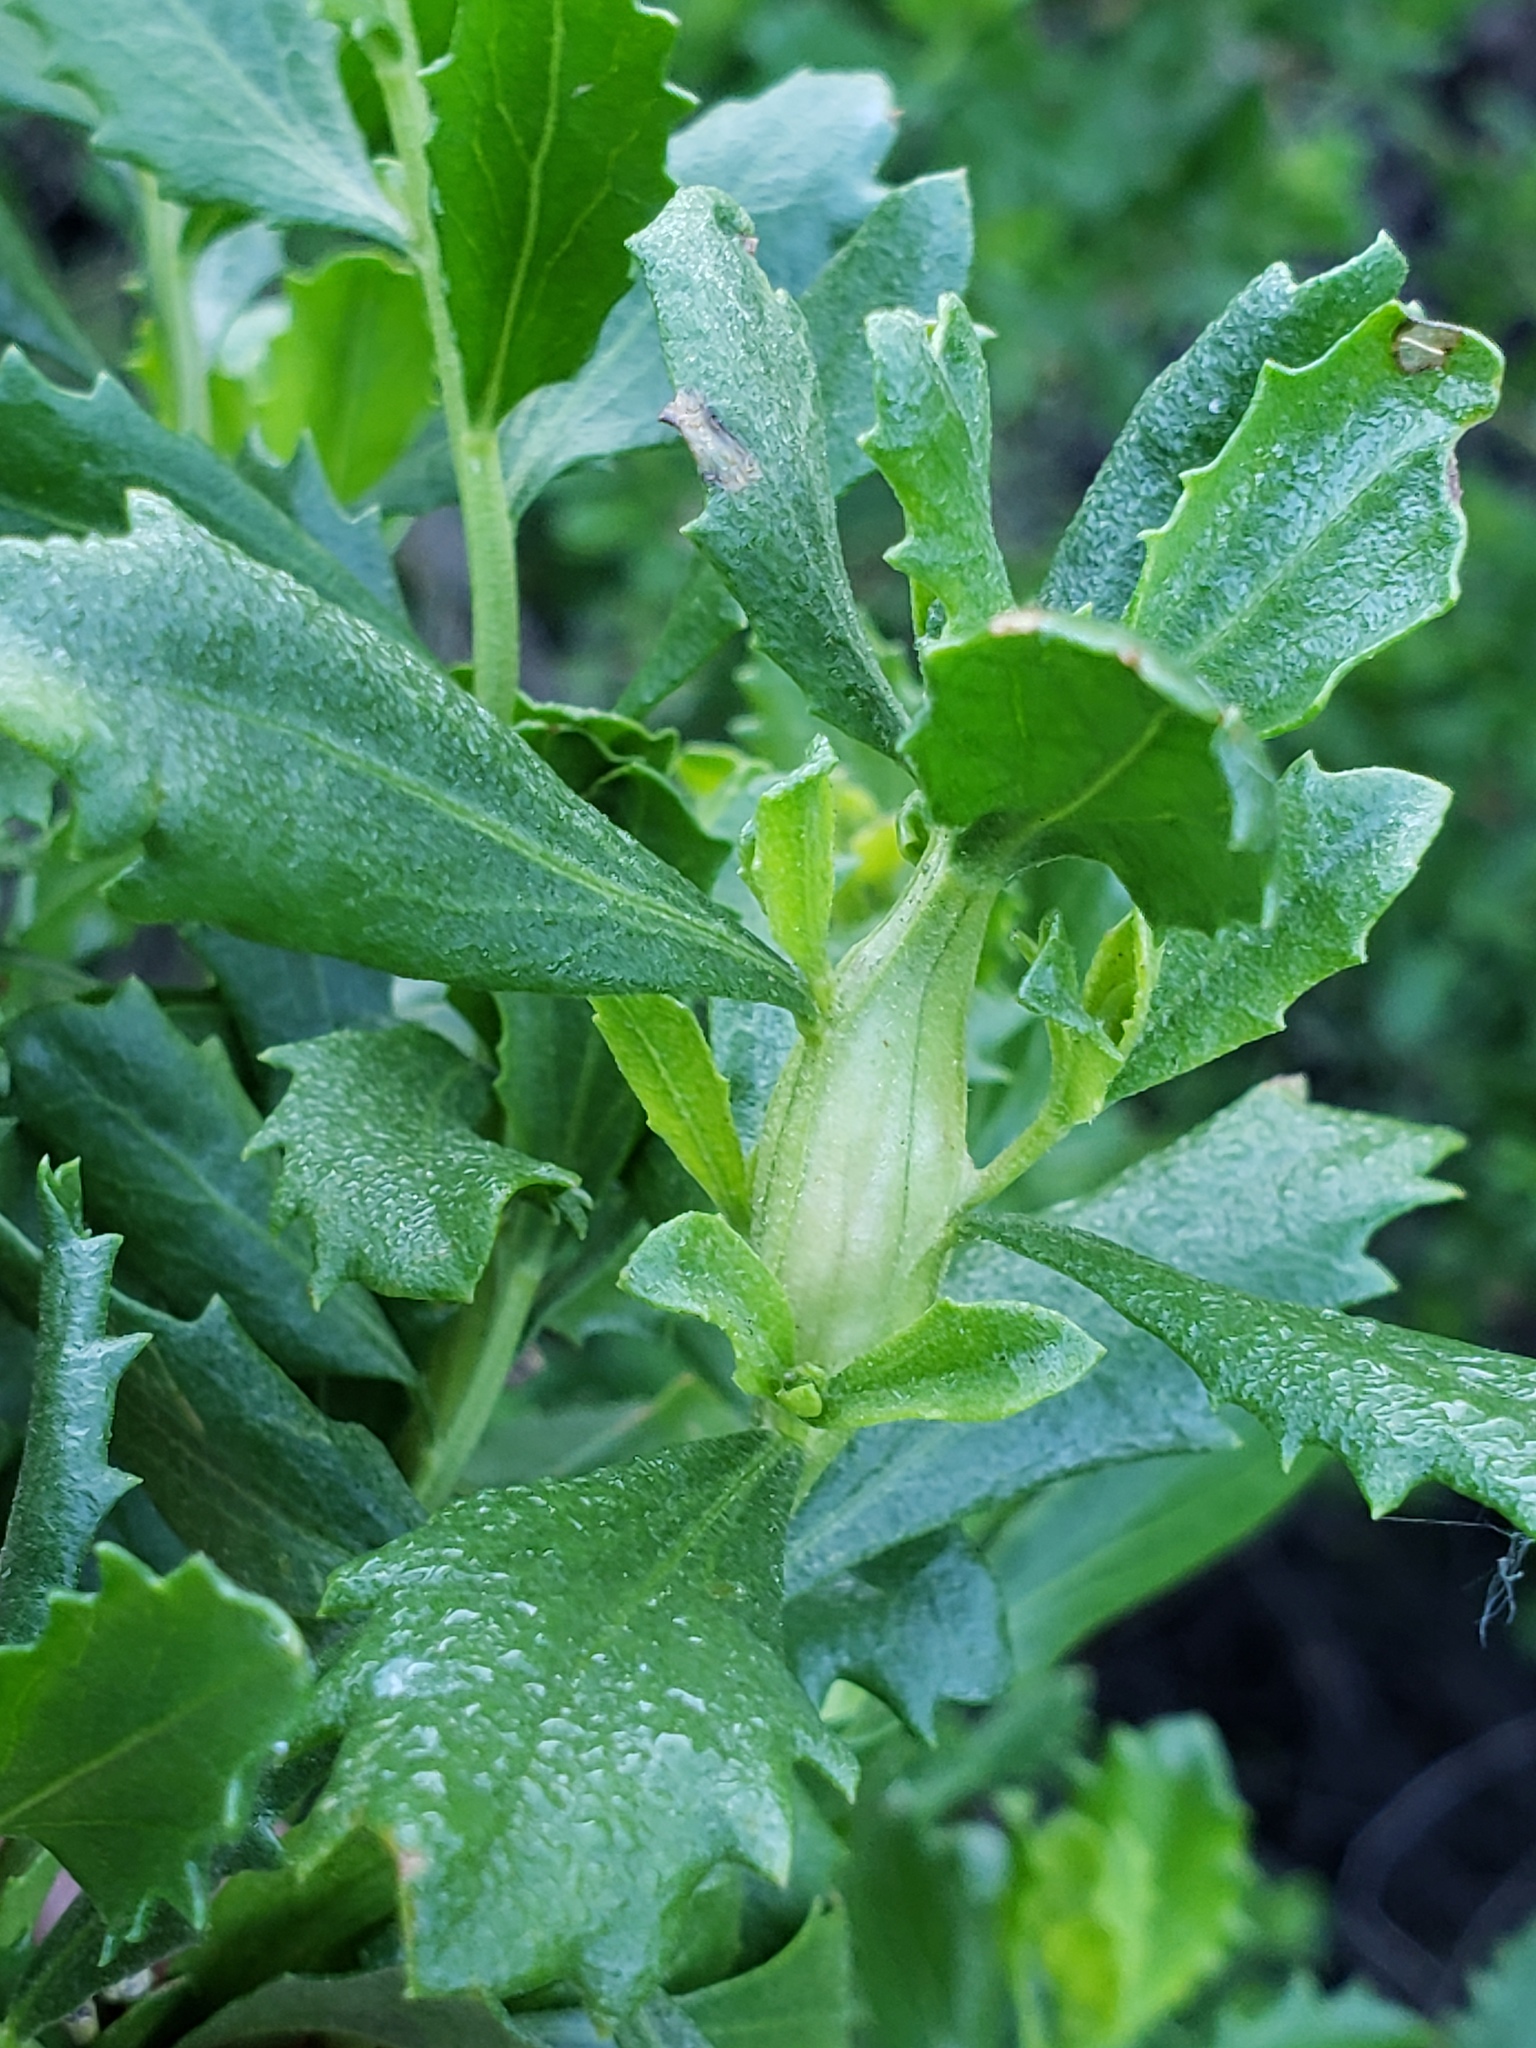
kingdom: Animalia
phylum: Arthropoda
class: Insecta
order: Lepidoptera
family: Gelechiidae
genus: Gnorimoschema
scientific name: Gnorimoschema baccharisella
